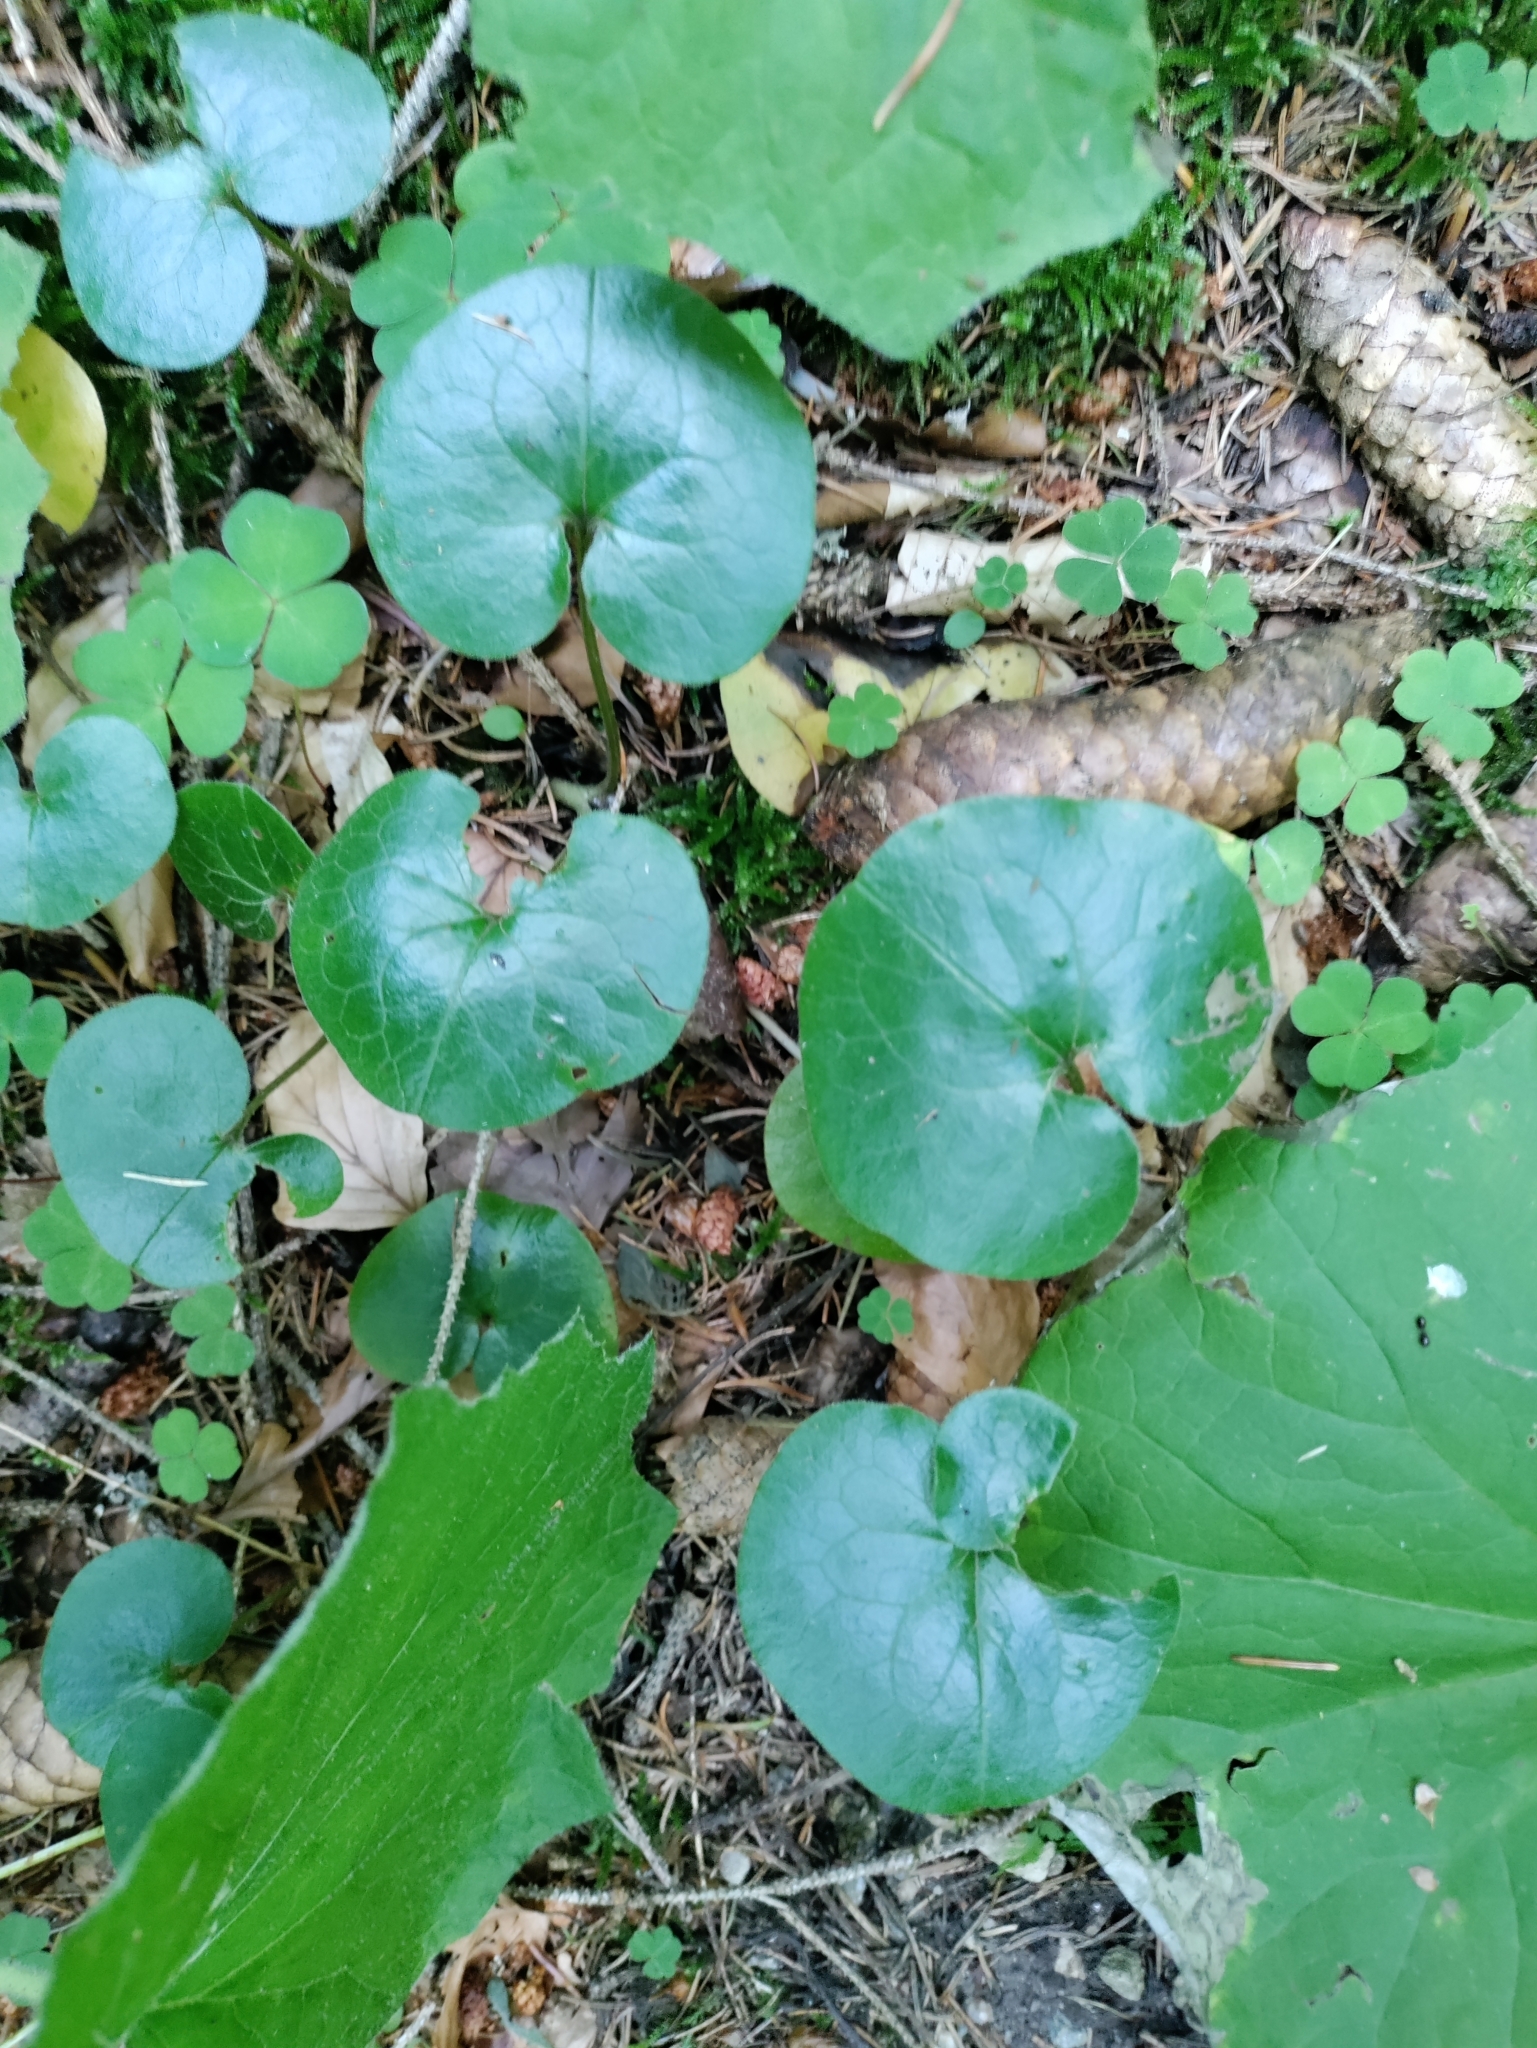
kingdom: Plantae
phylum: Tracheophyta
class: Magnoliopsida
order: Piperales
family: Aristolochiaceae
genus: Asarum
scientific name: Asarum europaeum
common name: Asarabacca
